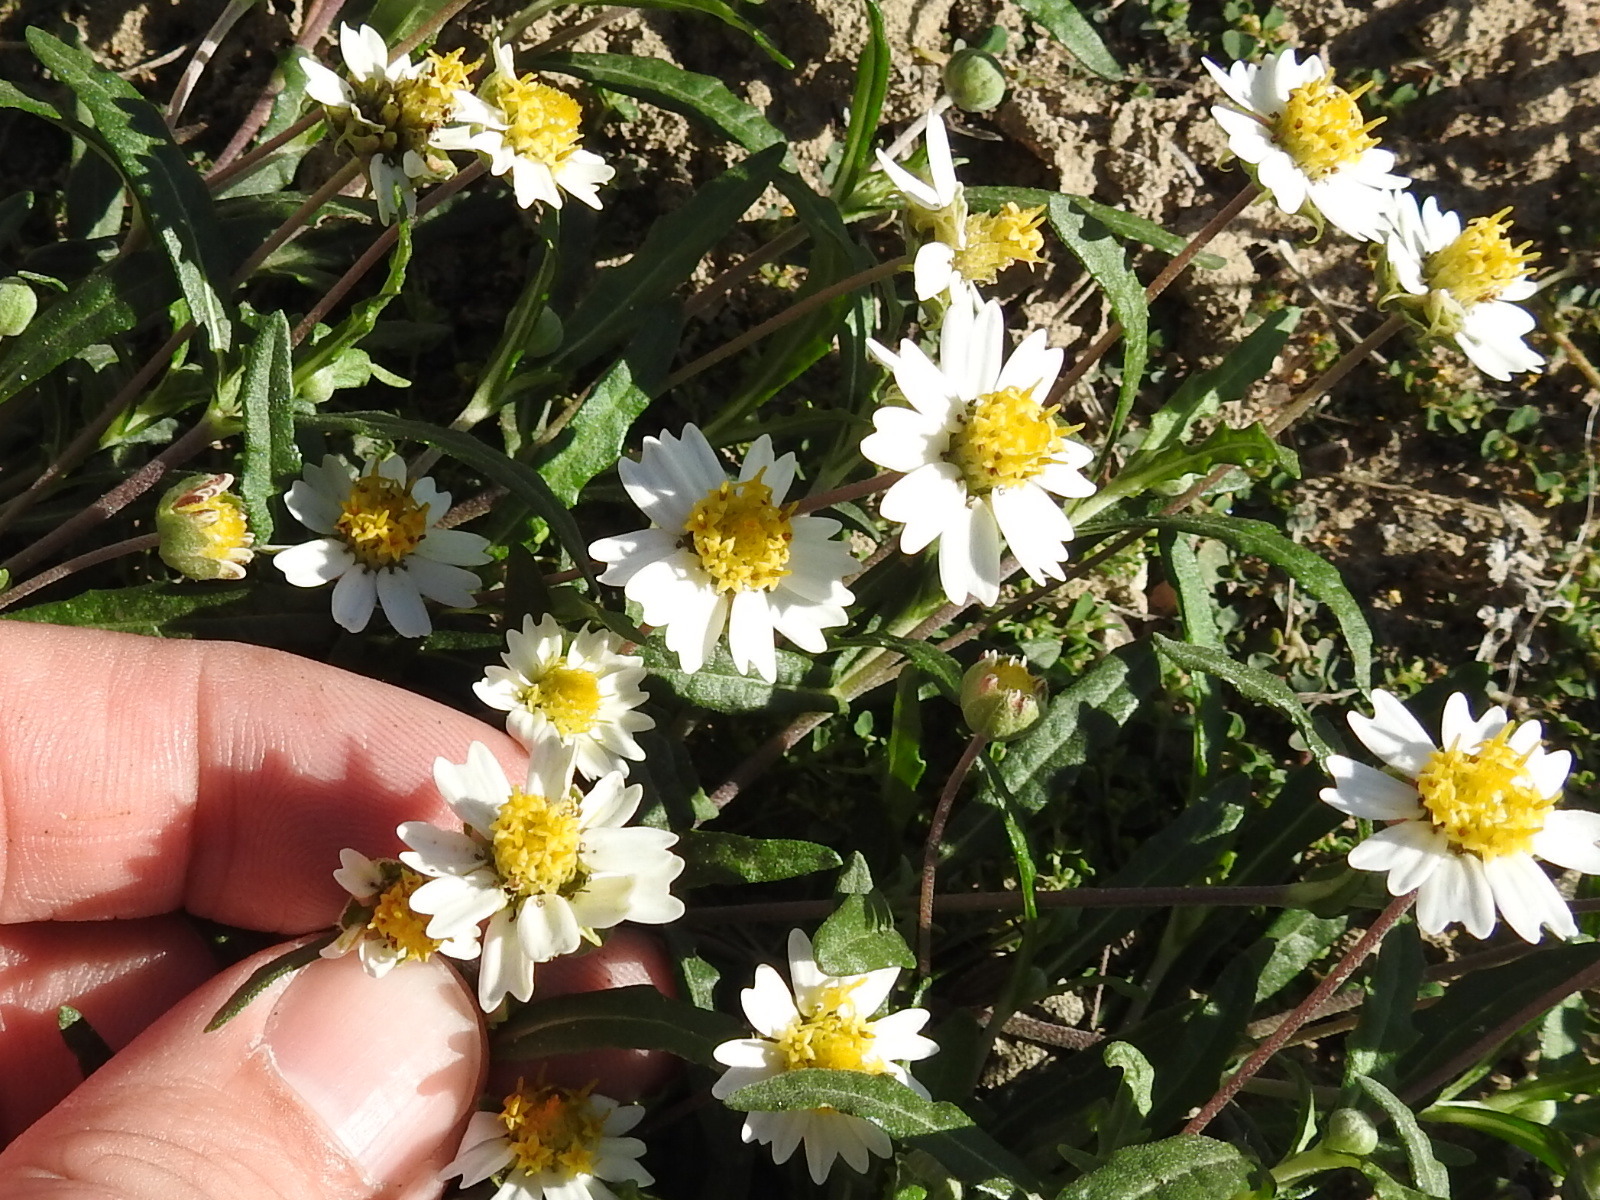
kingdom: Plantae
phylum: Tracheophyta
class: Magnoliopsida
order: Asterales
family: Asteraceae
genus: Melampodium
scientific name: Melampodium cinereum
